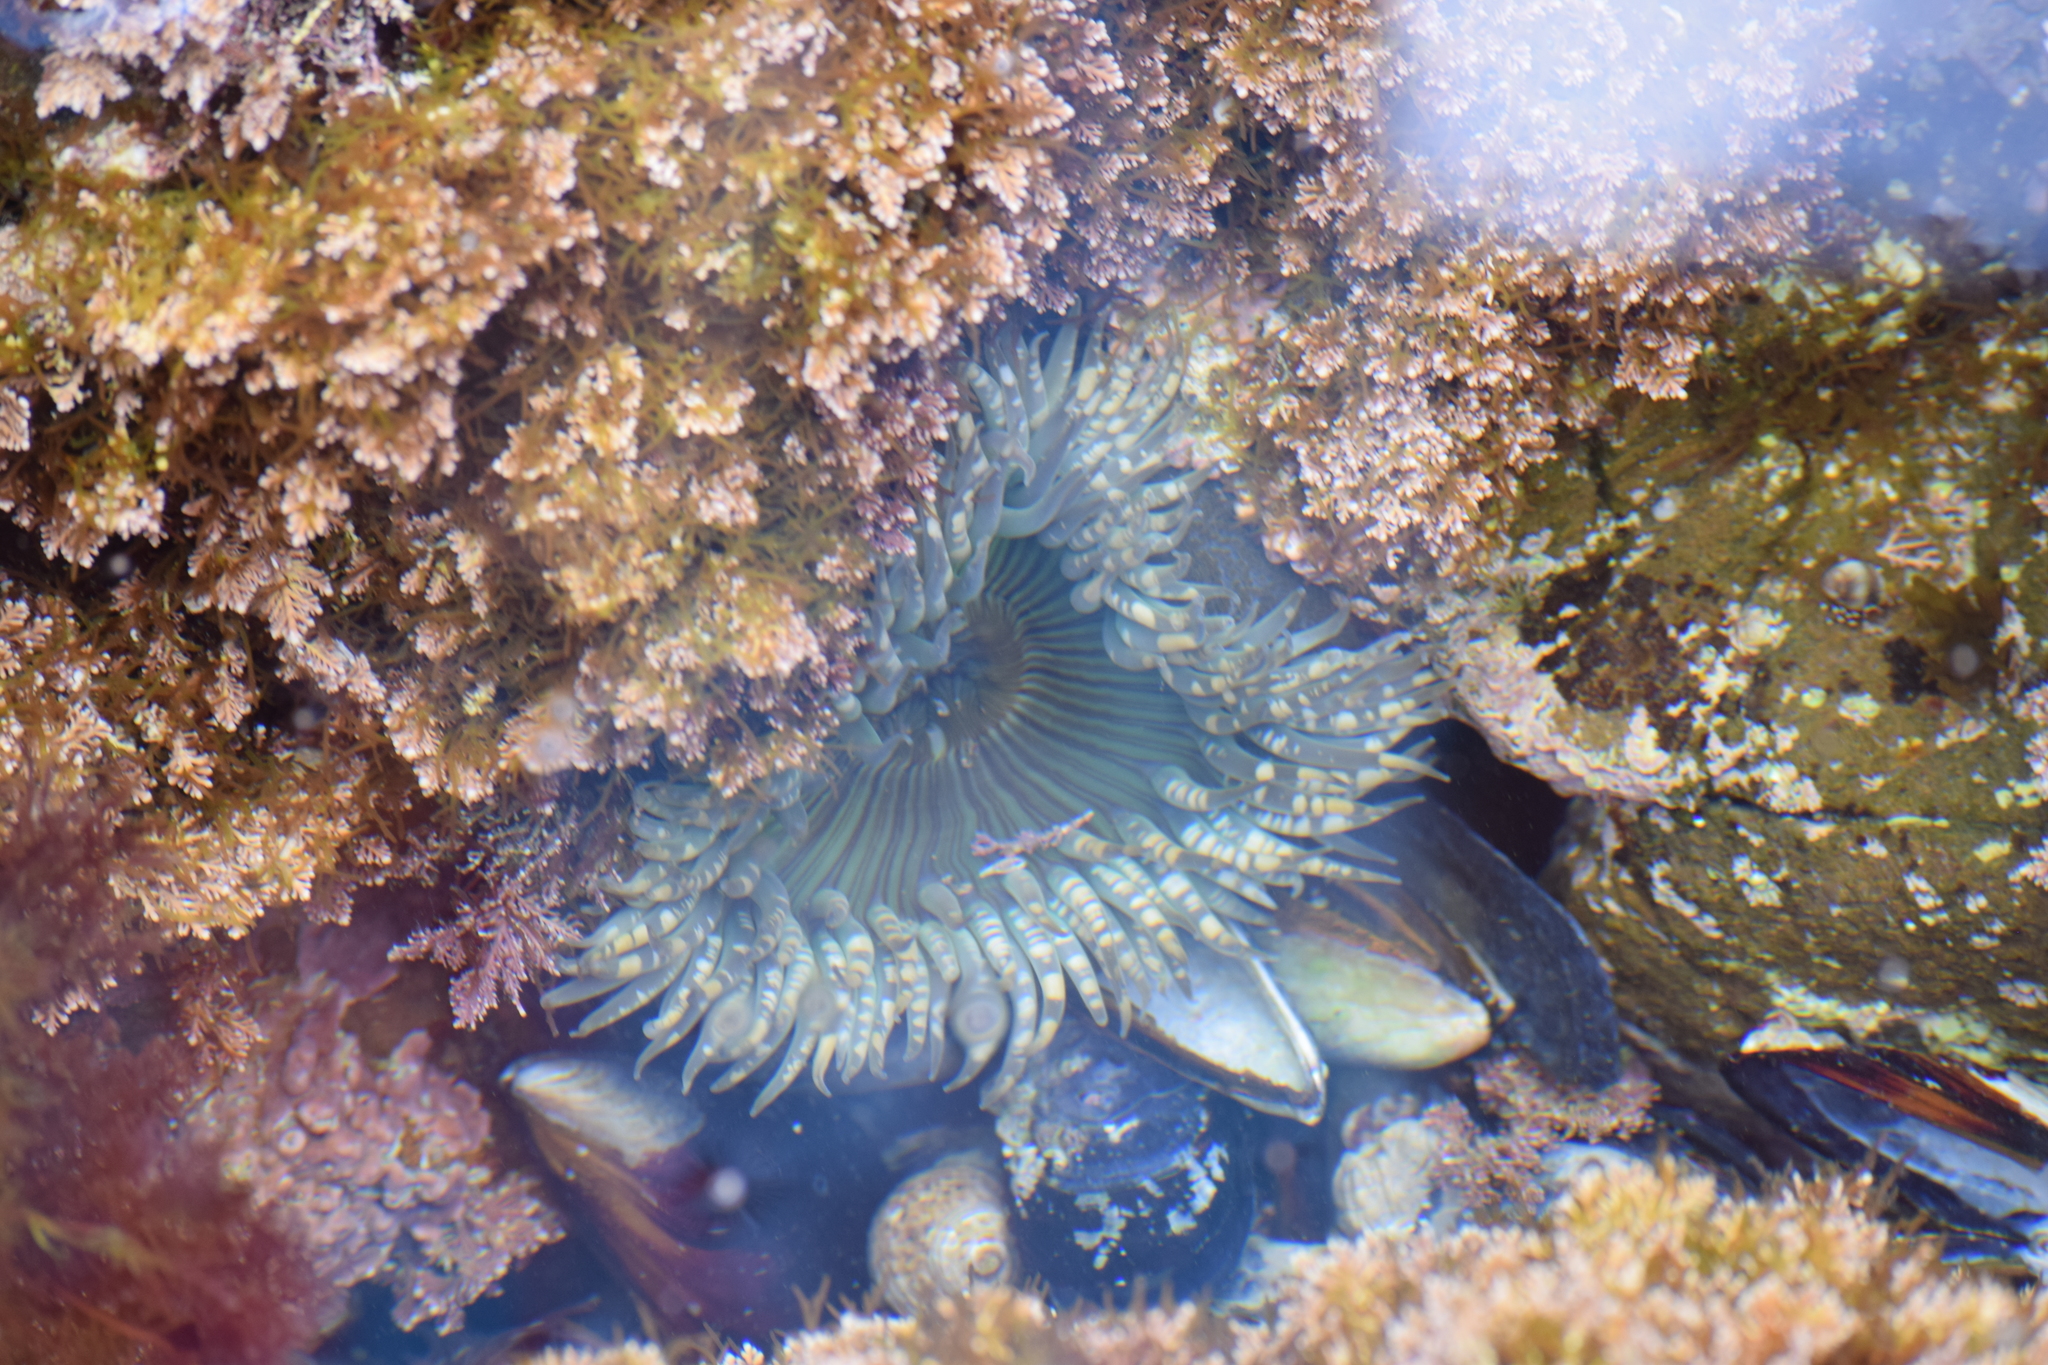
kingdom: Animalia
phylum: Cnidaria
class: Anthozoa
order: Actiniaria
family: Actiniidae
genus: Anthopleura
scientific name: Anthopleura sola
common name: Sun anemone
